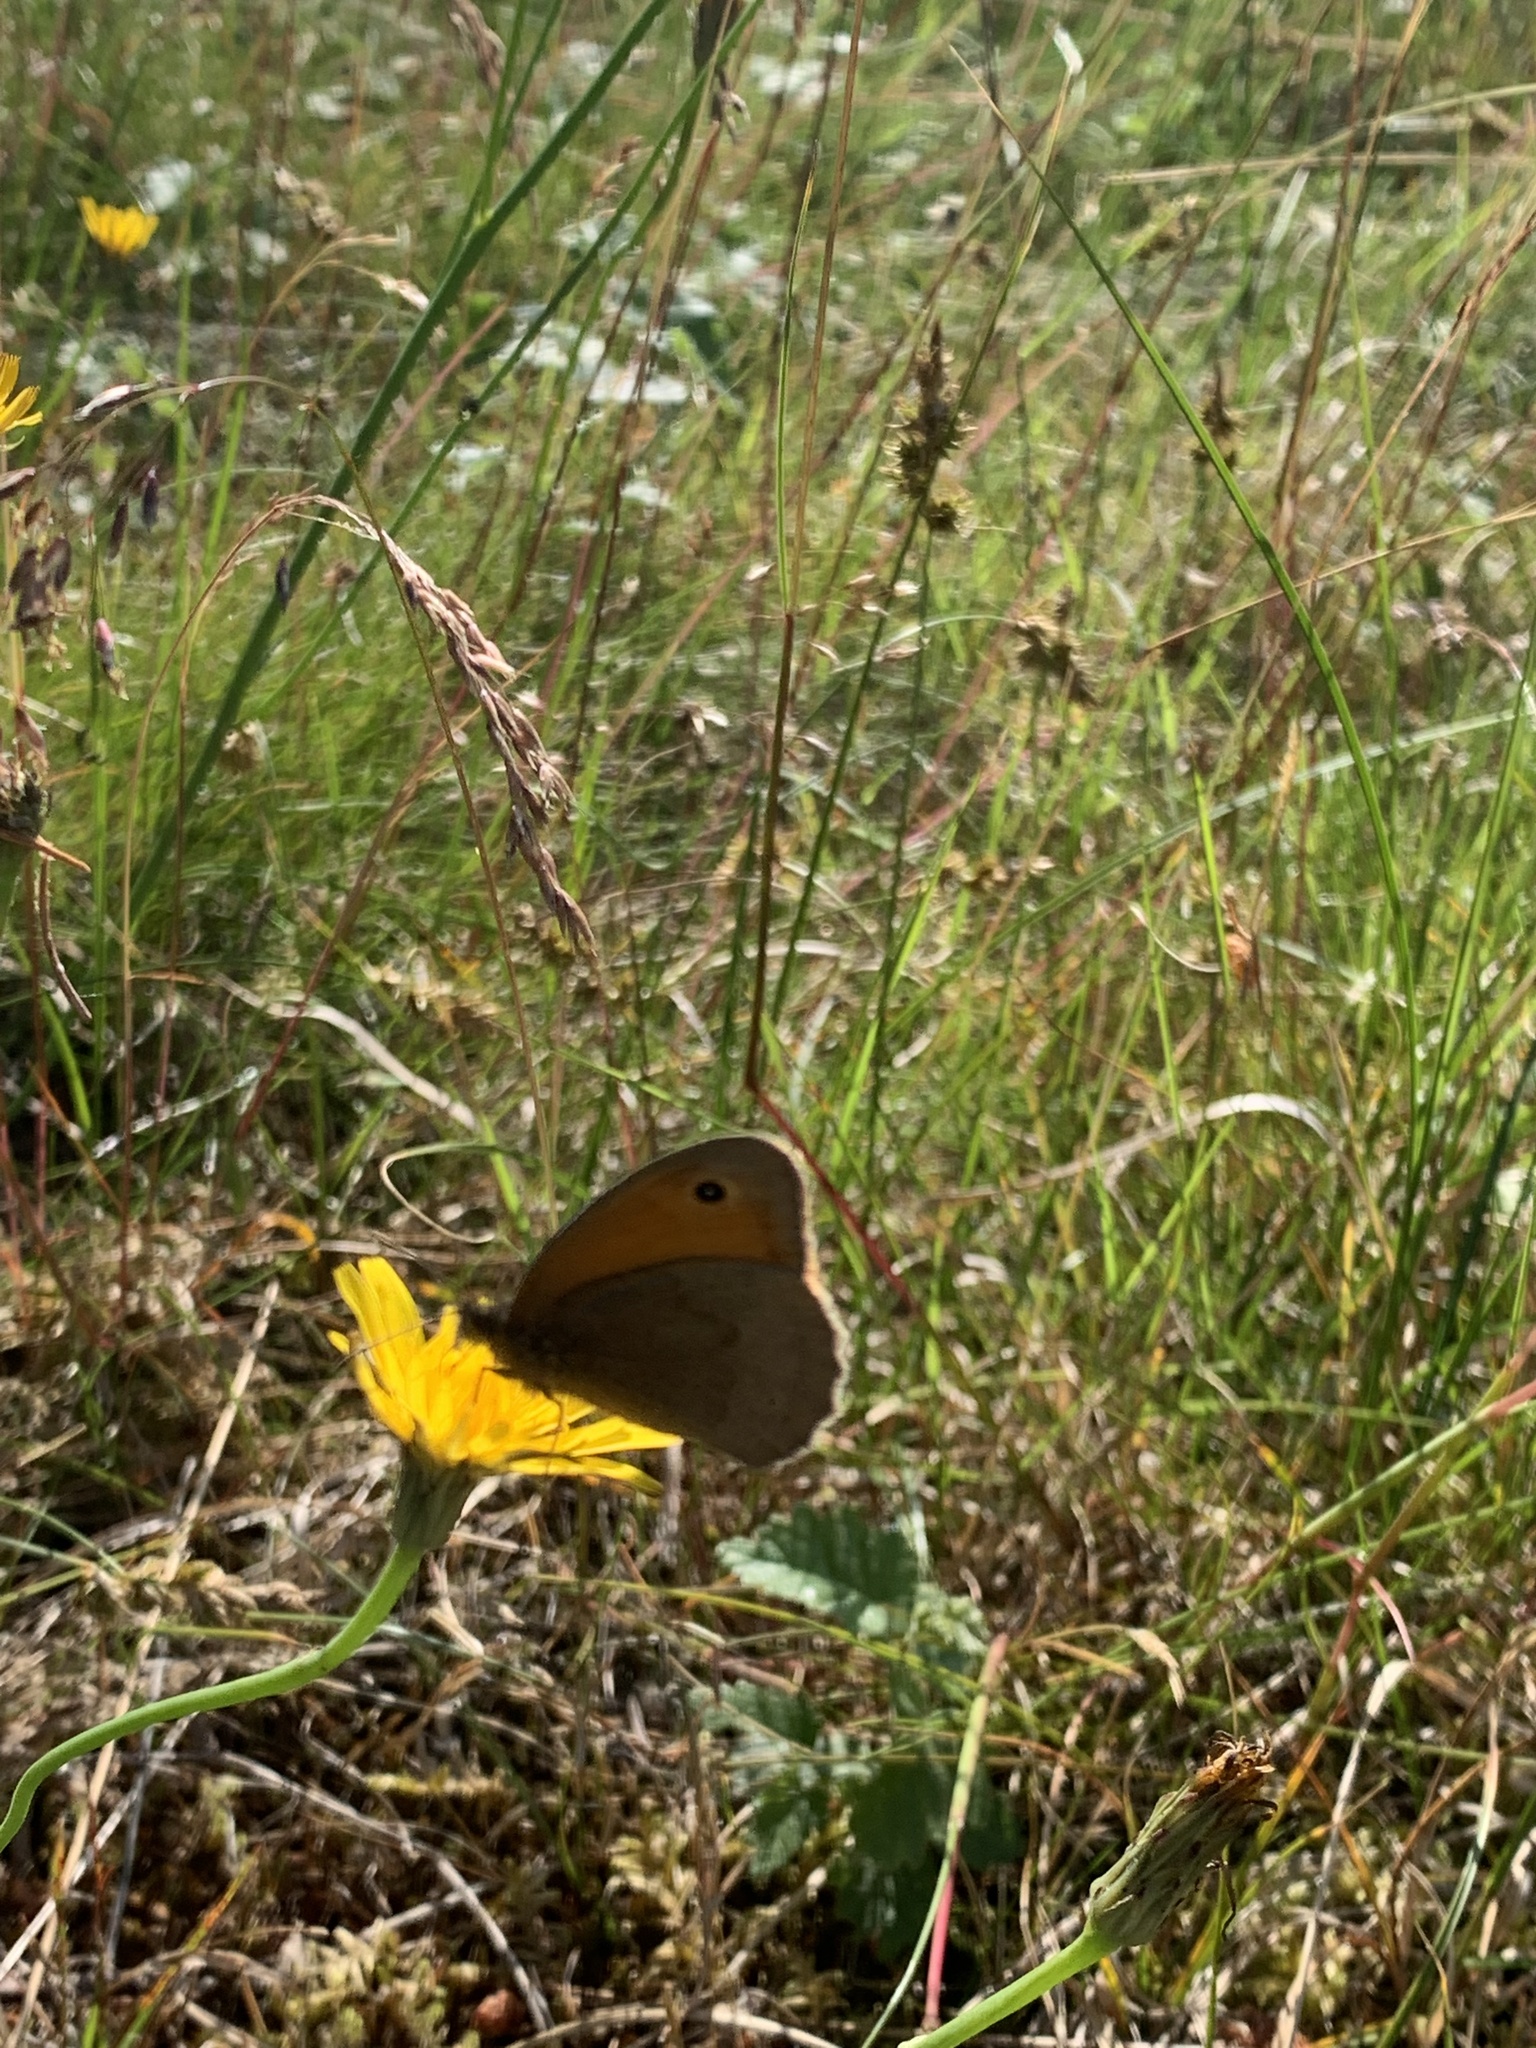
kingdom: Animalia
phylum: Arthropoda
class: Insecta
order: Lepidoptera
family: Nymphalidae
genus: Maniola
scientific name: Maniola jurtina
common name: Meadow brown
